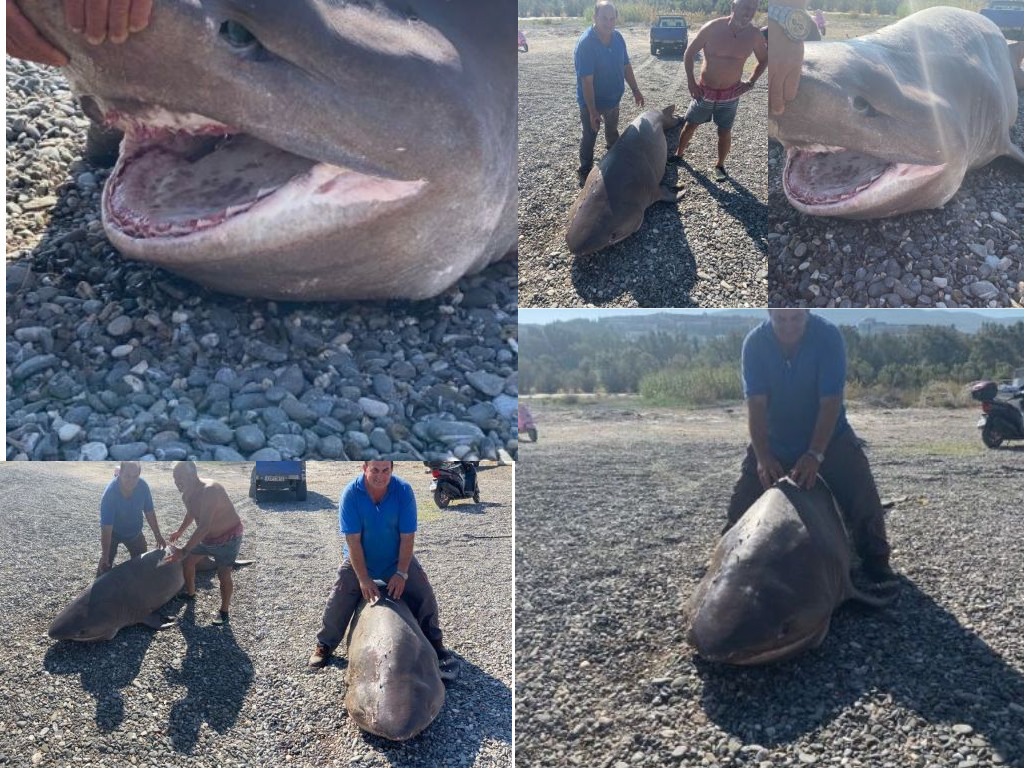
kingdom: Animalia
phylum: Chordata
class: Elasmobranchii
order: Hexanchiformes
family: Hexanchidae
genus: Hexanchus
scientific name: Hexanchus griseus
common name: Bluntnose sixgill shark
